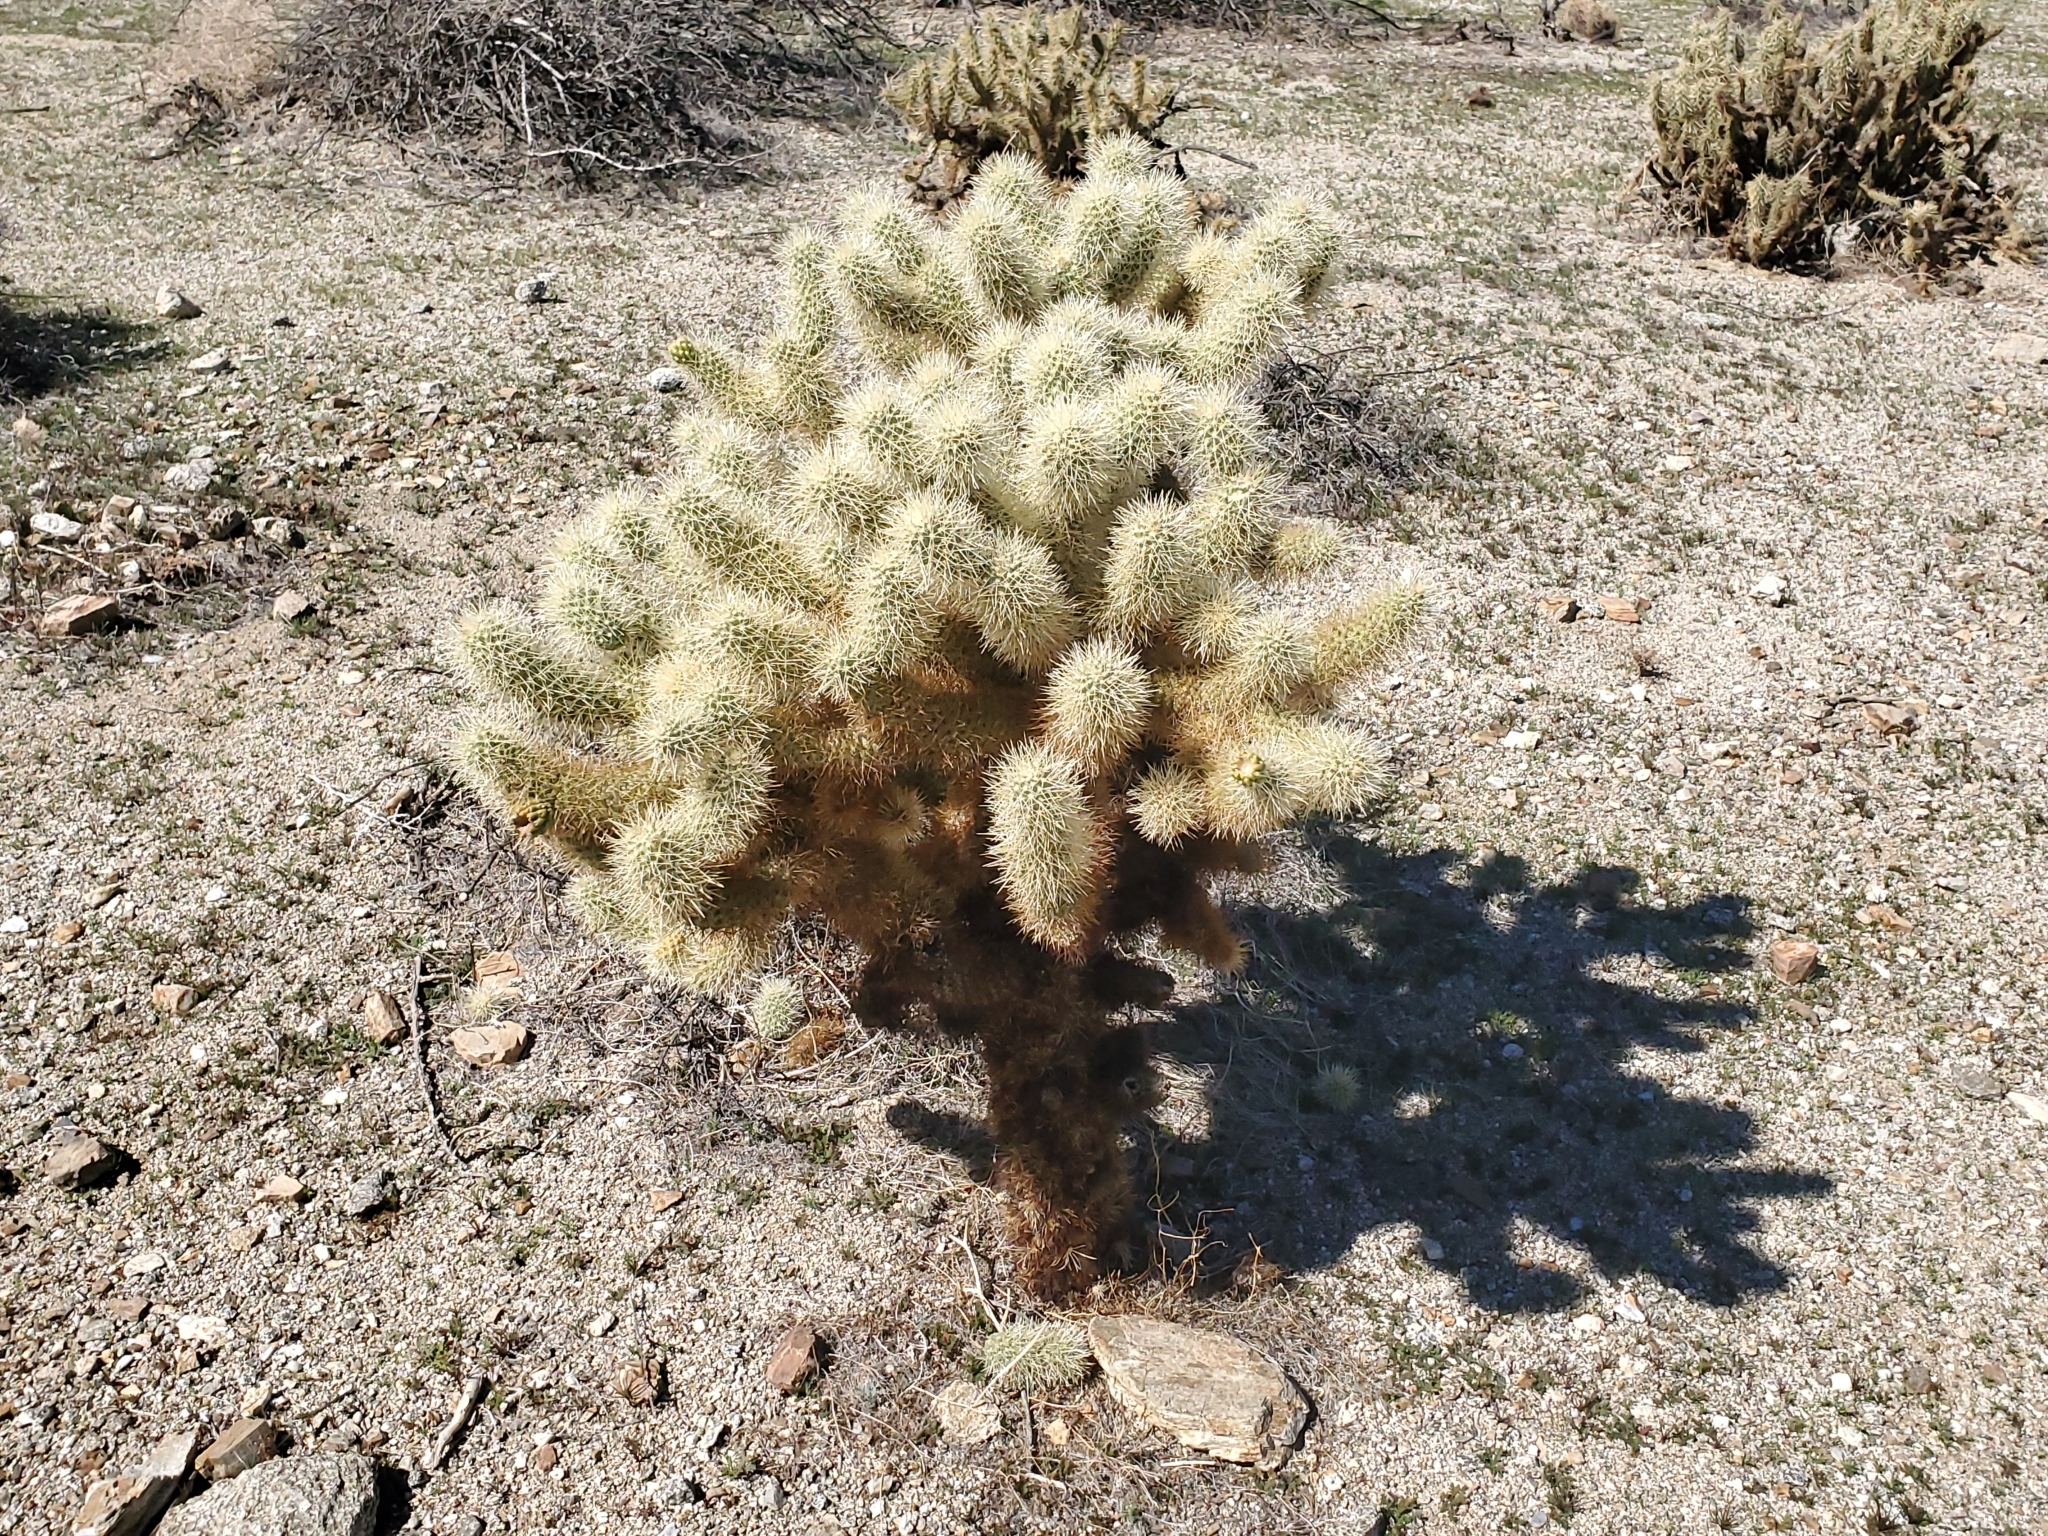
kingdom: Plantae
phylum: Tracheophyta
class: Magnoliopsida
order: Caryophyllales
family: Cactaceae
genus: Cylindropuntia
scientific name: Cylindropuntia fosbergii
